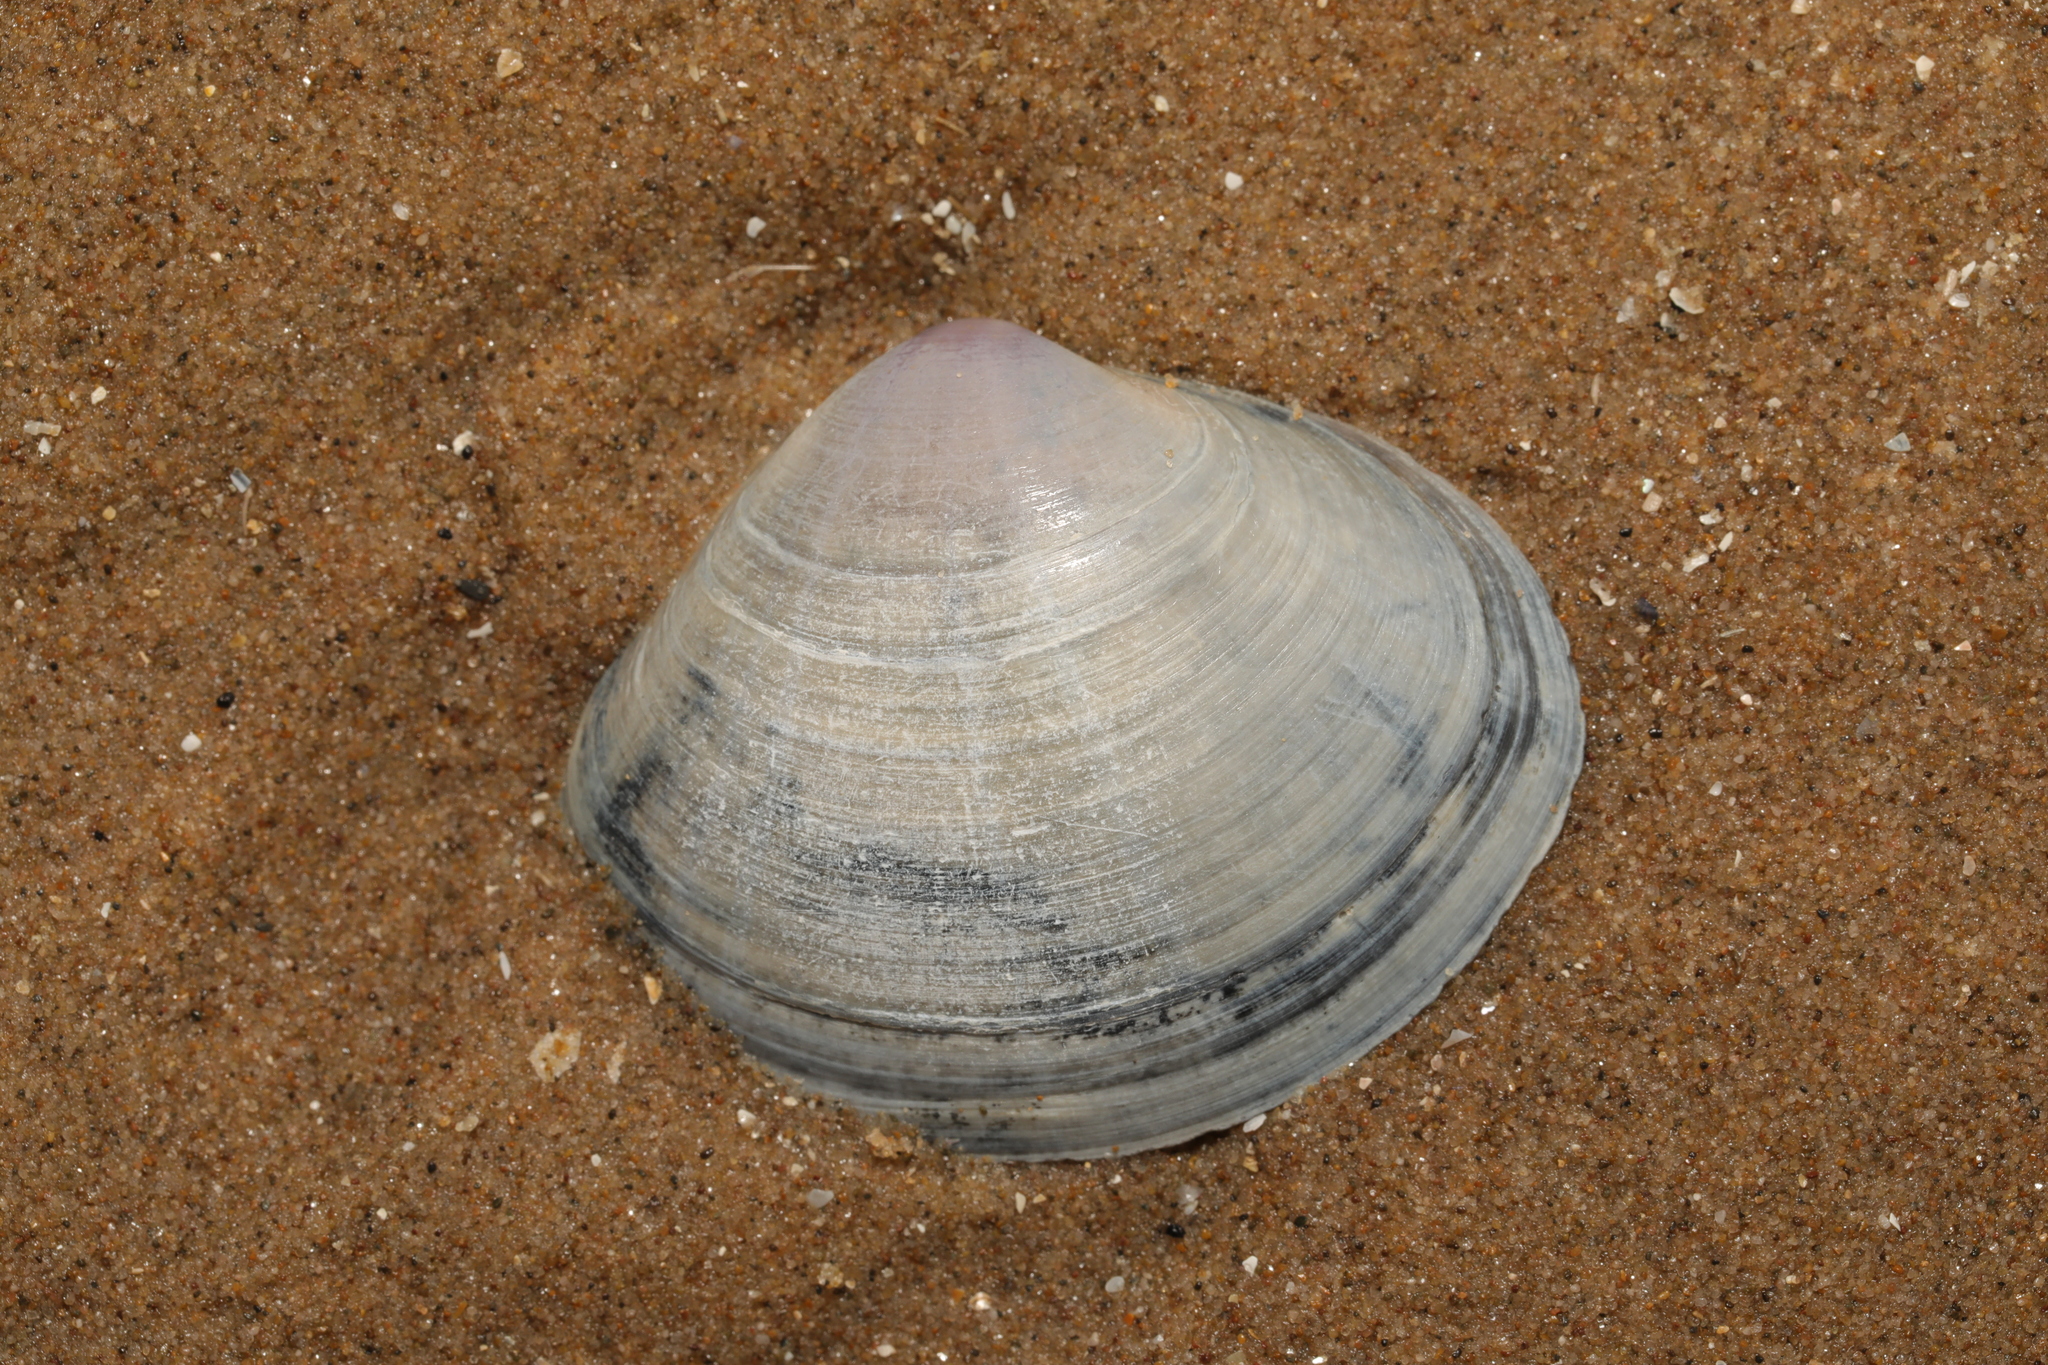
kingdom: Animalia
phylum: Mollusca
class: Bivalvia
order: Venerida
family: Mactridae
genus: Mactra
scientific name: Mactra stultorum
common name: Rayed trough shell
